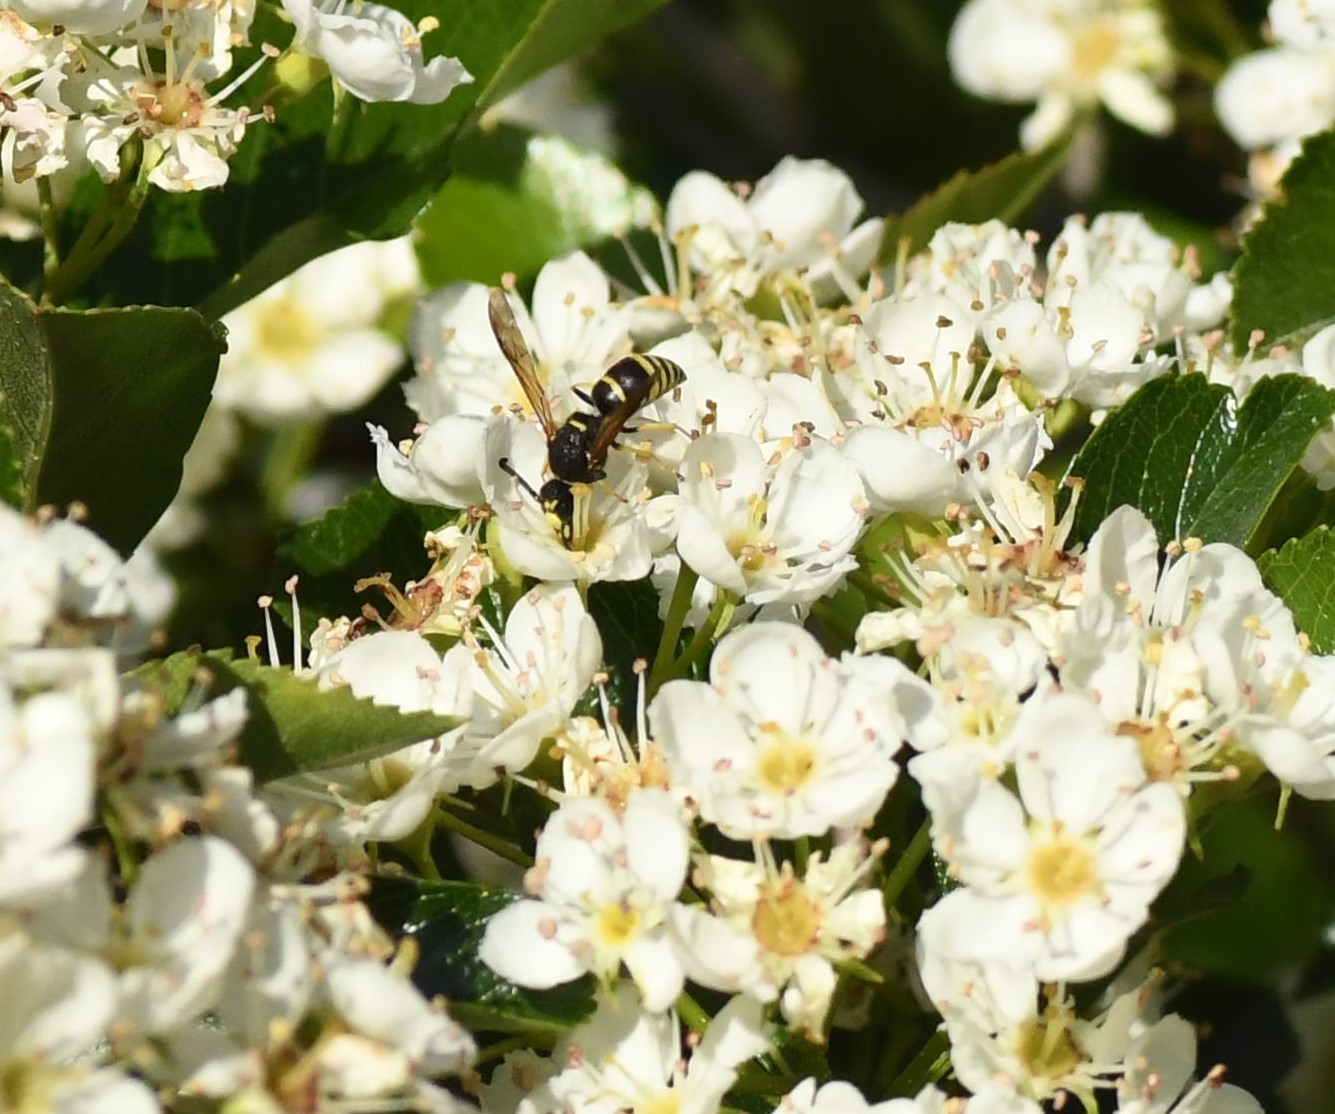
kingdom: Animalia
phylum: Arthropoda
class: Insecta
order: Hymenoptera
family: Eumenidae
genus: Euodynerus
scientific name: Euodynerus
